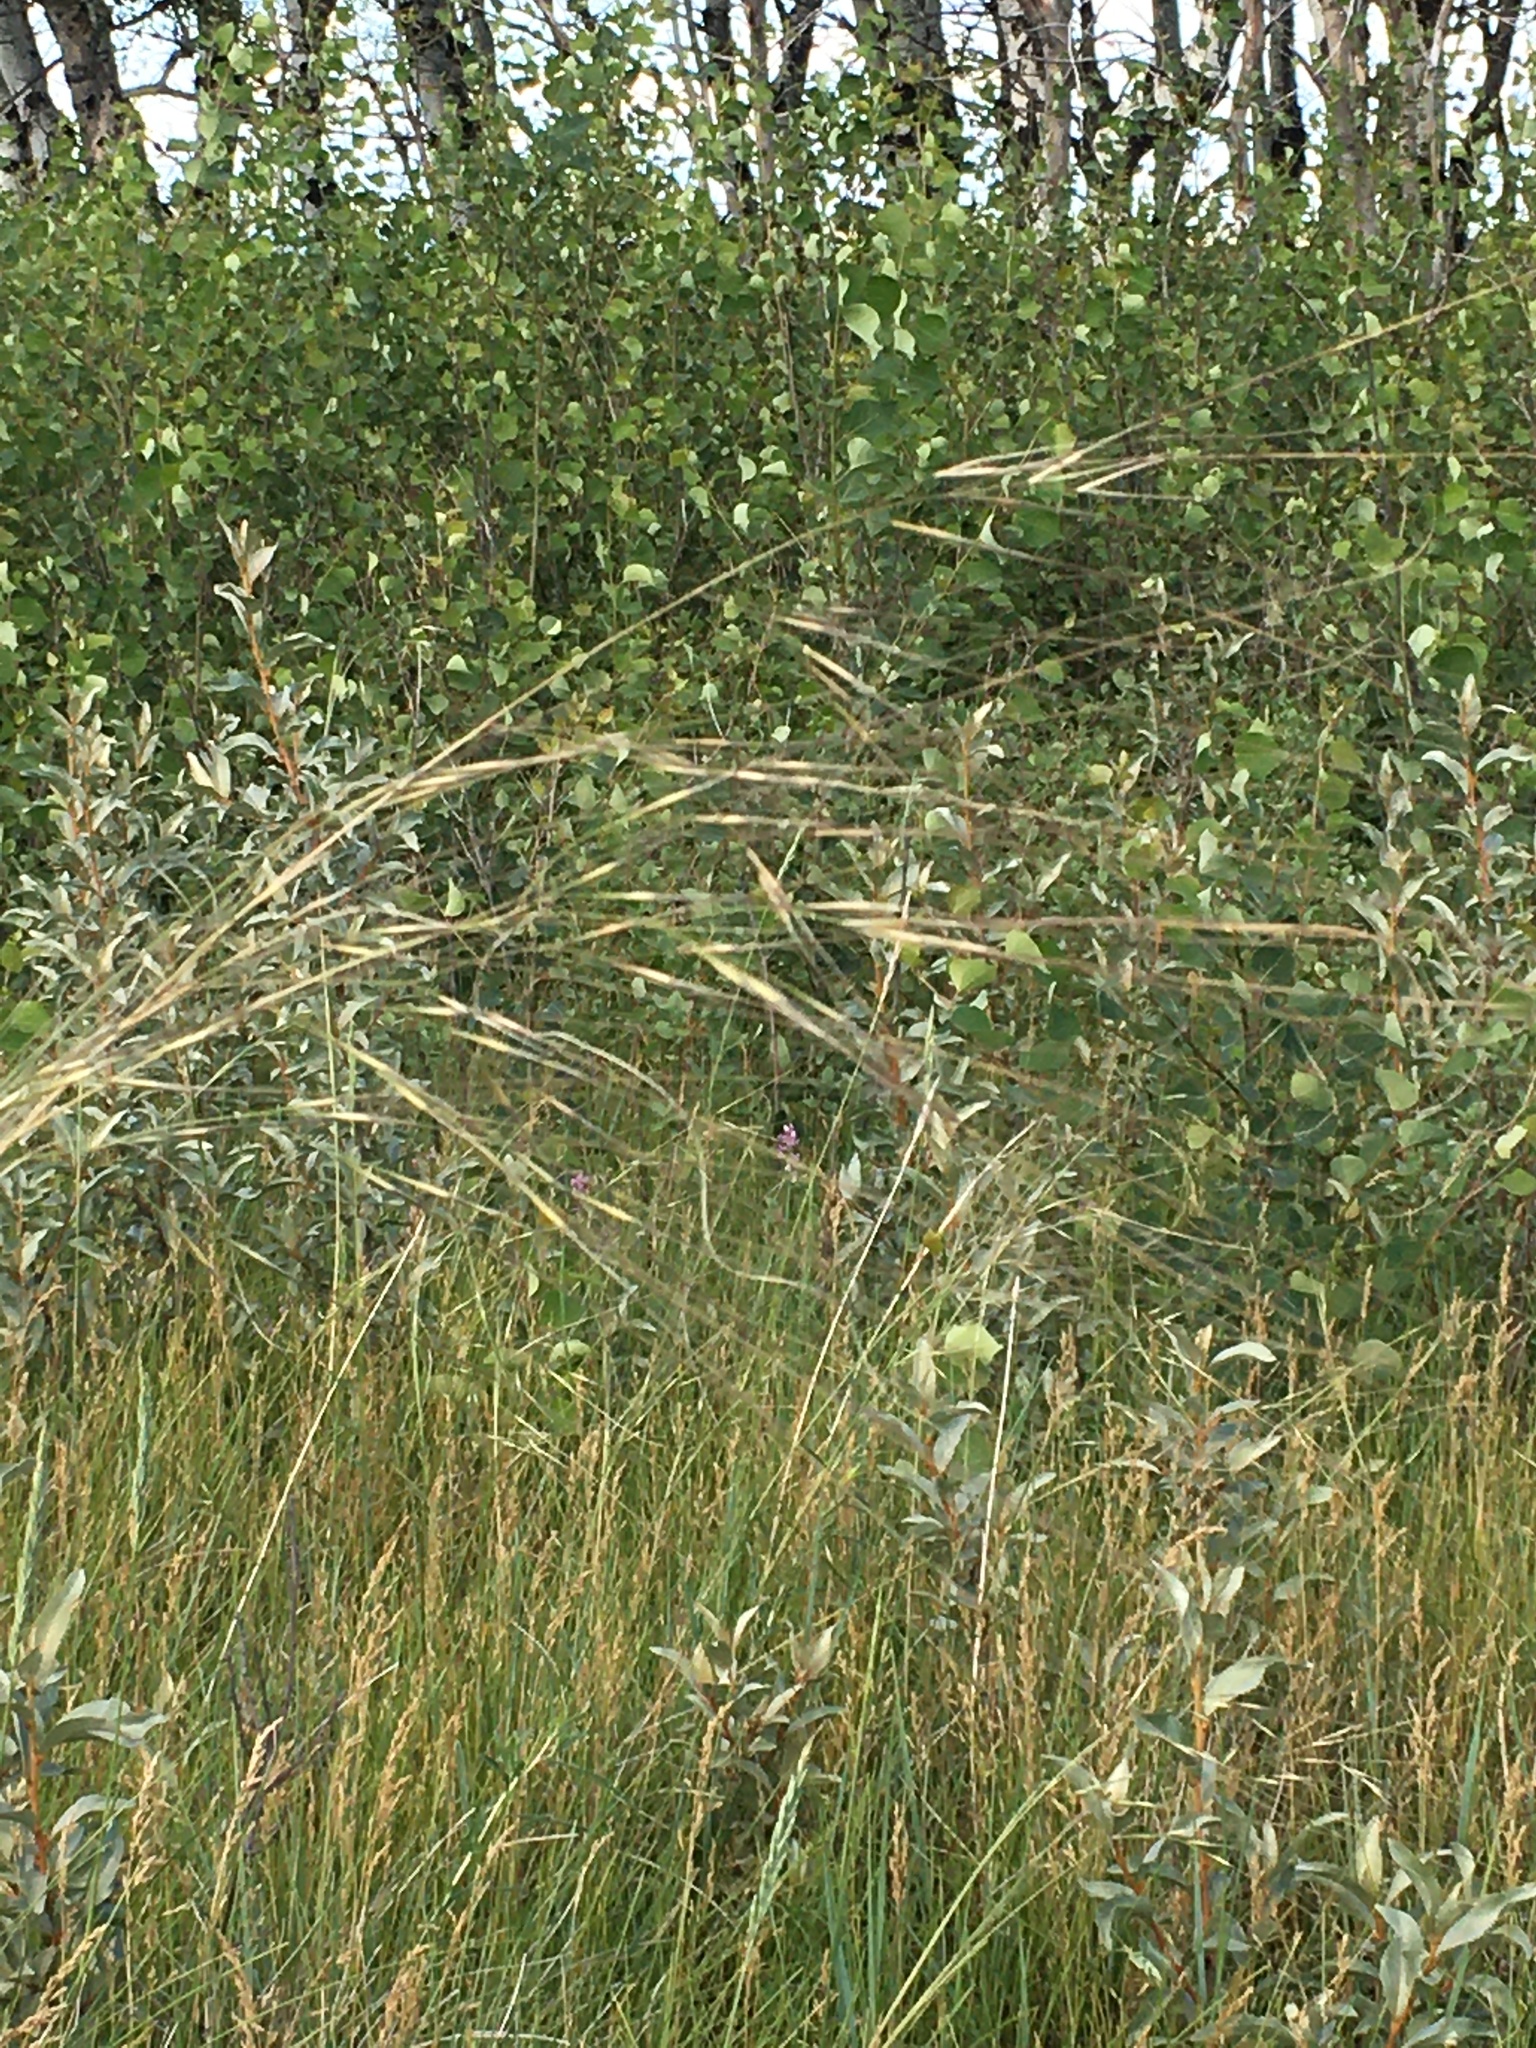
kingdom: Plantae
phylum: Tracheophyta
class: Liliopsida
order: Poales
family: Poaceae
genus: Hesperostipa
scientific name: Hesperostipa comata
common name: Needle-and-thread grass
